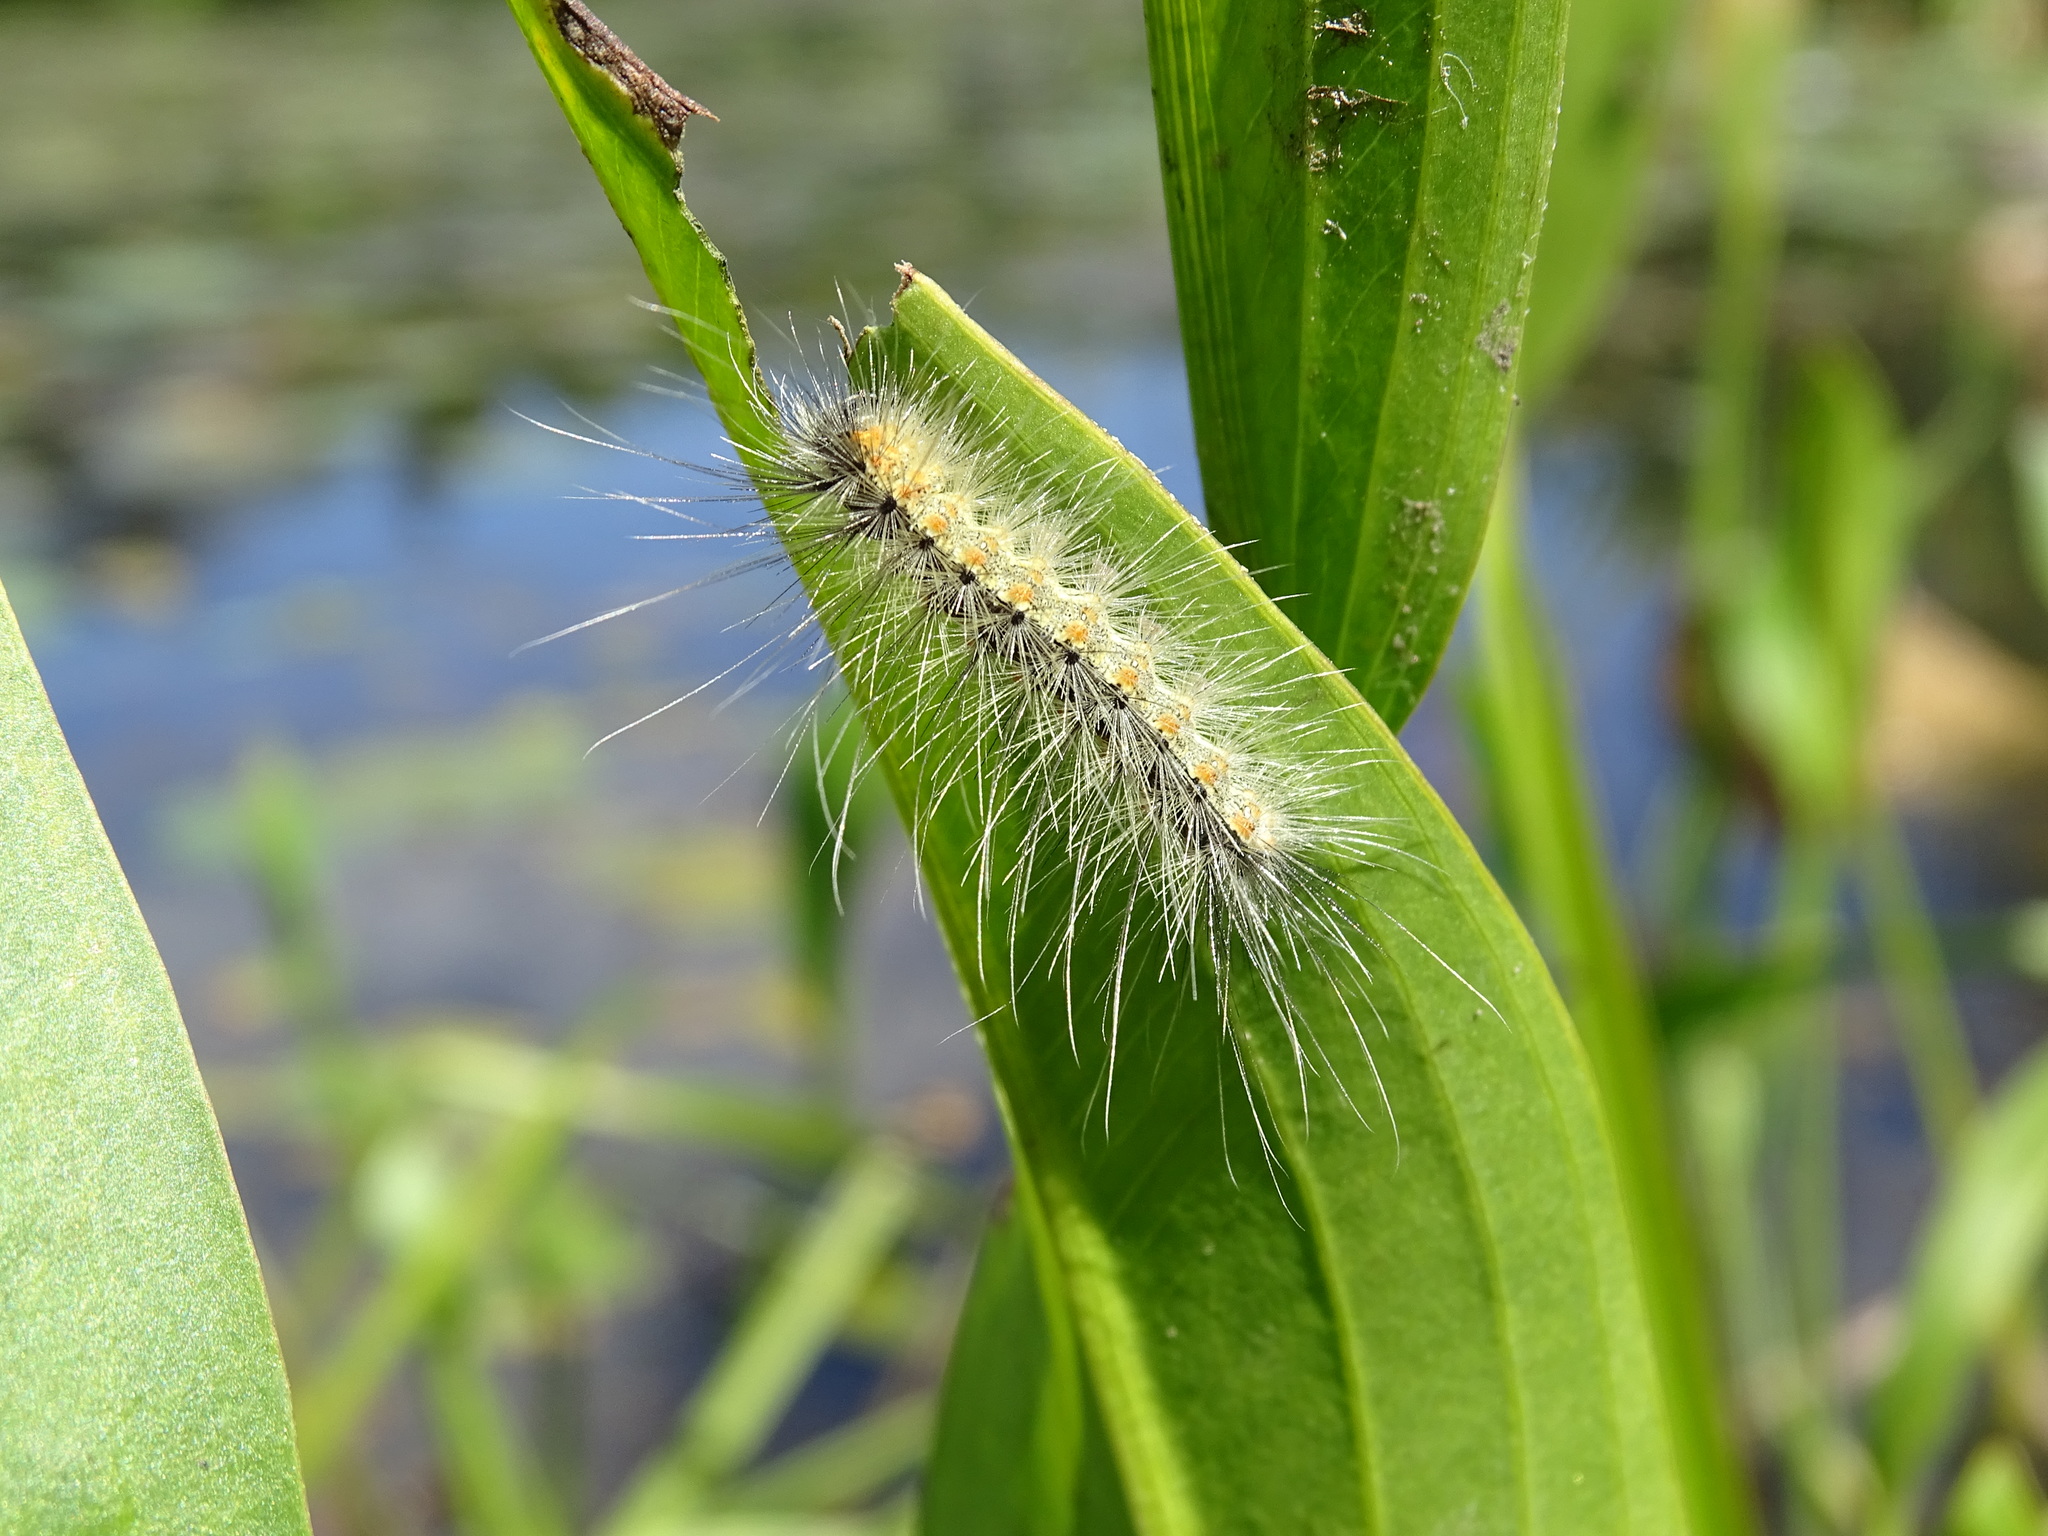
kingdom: Animalia
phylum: Arthropoda
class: Insecta
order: Lepidoptera
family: Erebidae
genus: Hyphantria
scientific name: Hyphantria cunea
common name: American white moth
